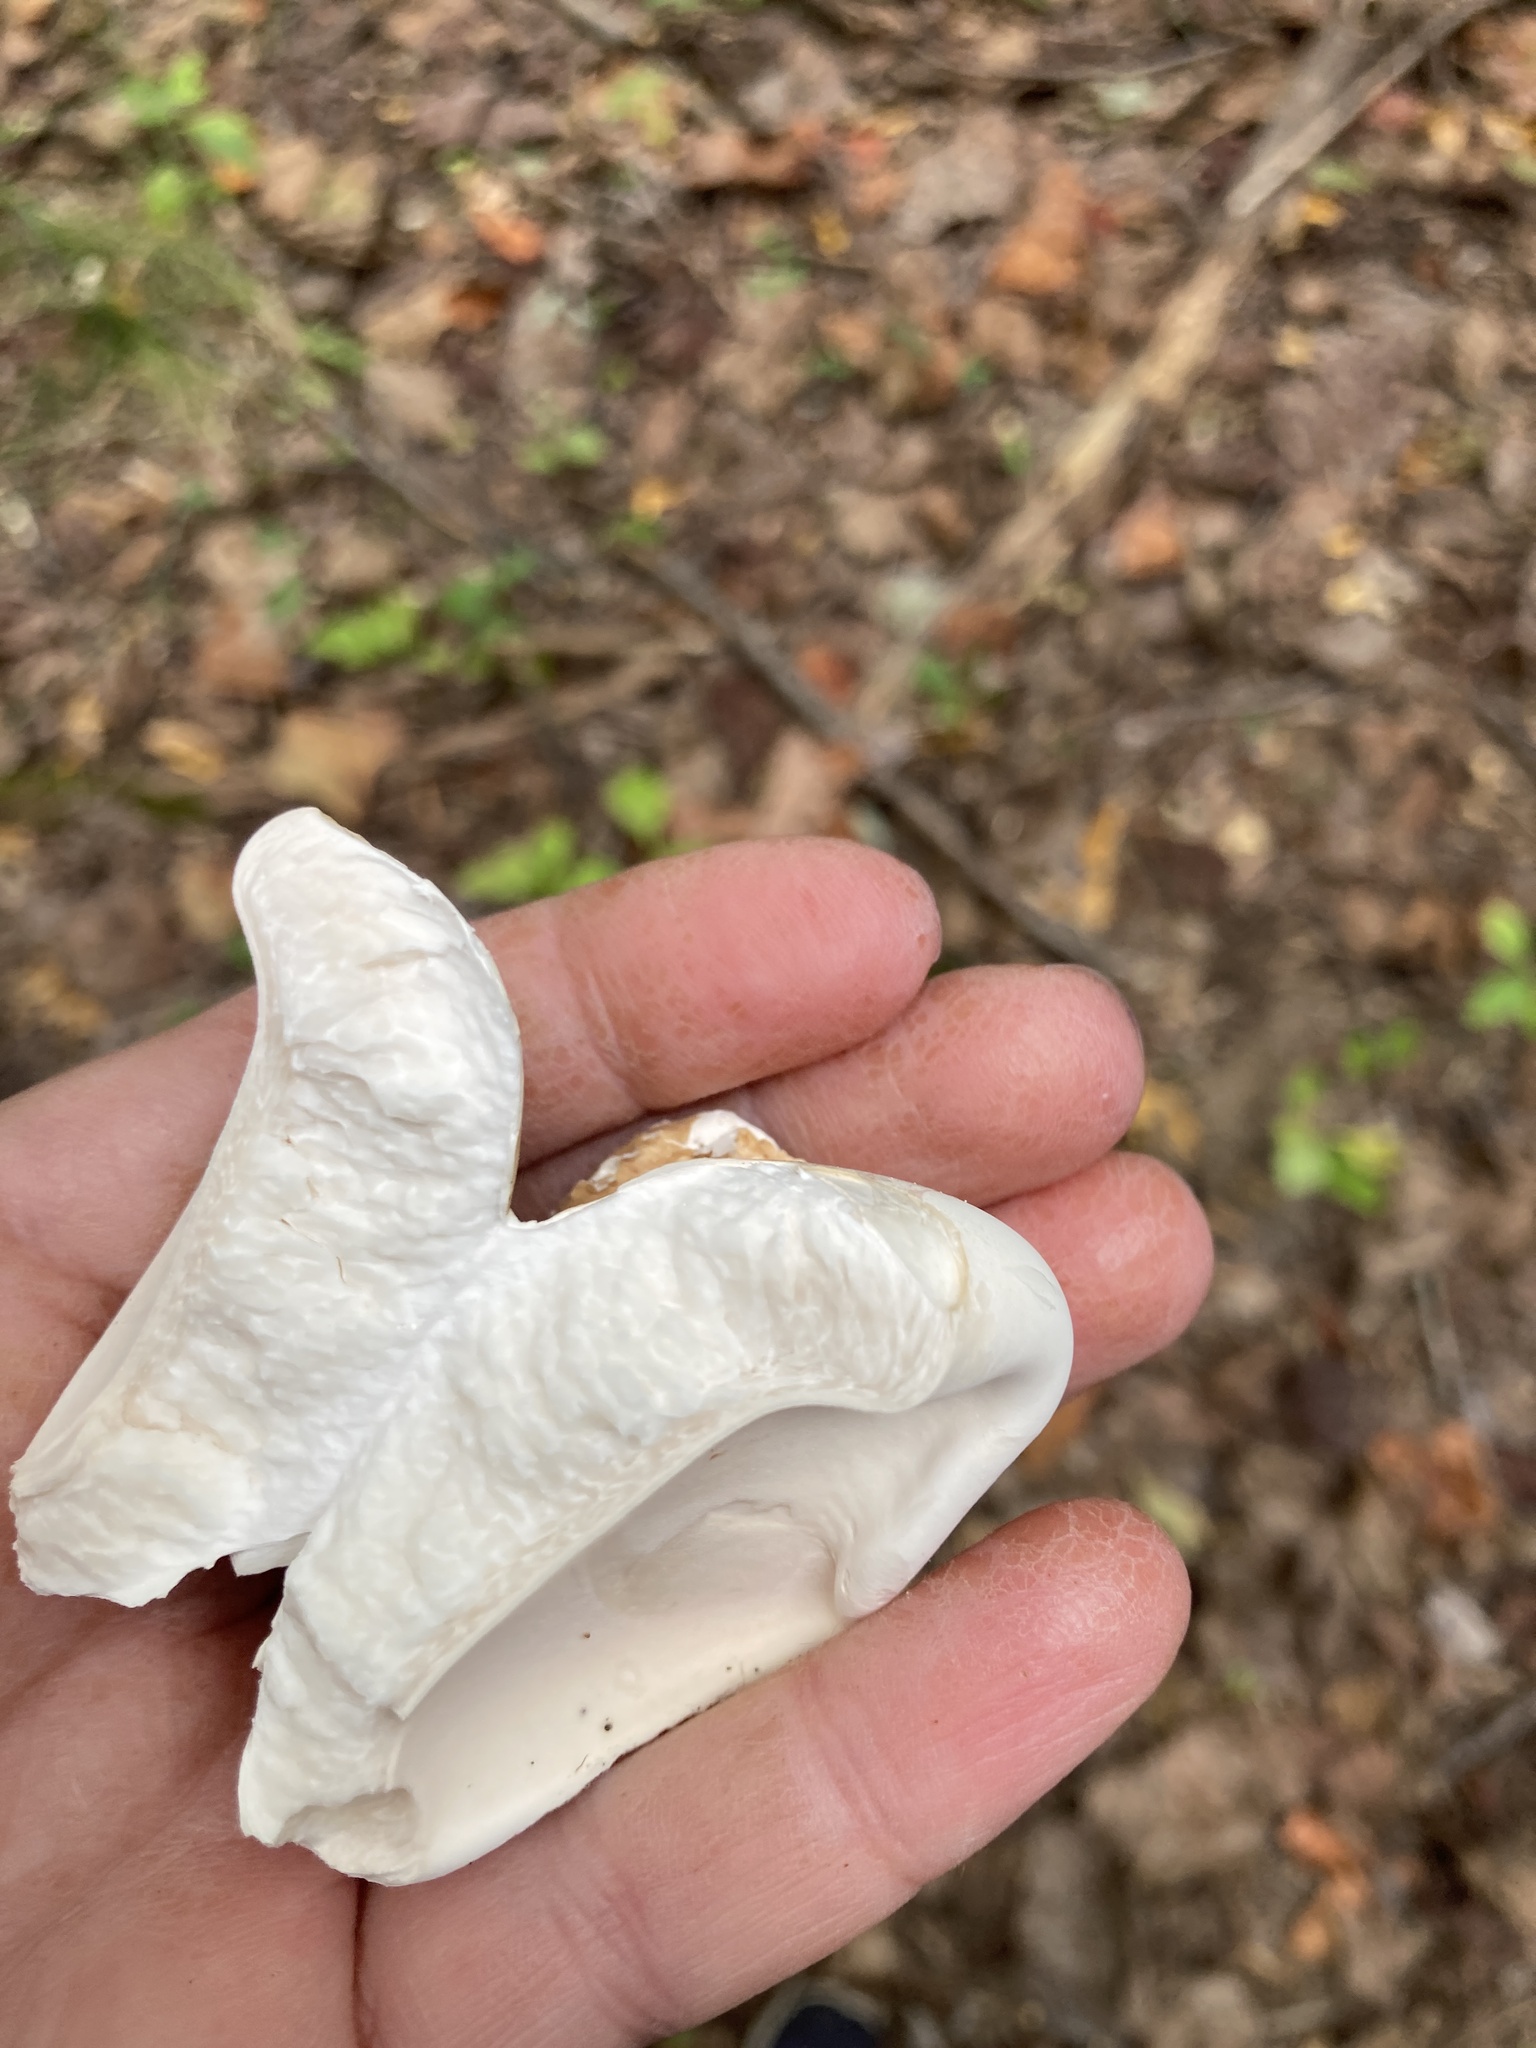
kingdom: Fungi
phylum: Basidiomycota
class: Agaricomycetes
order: Polyporales
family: Fomitopsidaceae
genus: Fomitopsis
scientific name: Fomitopsis betulina
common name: Birch polypore
